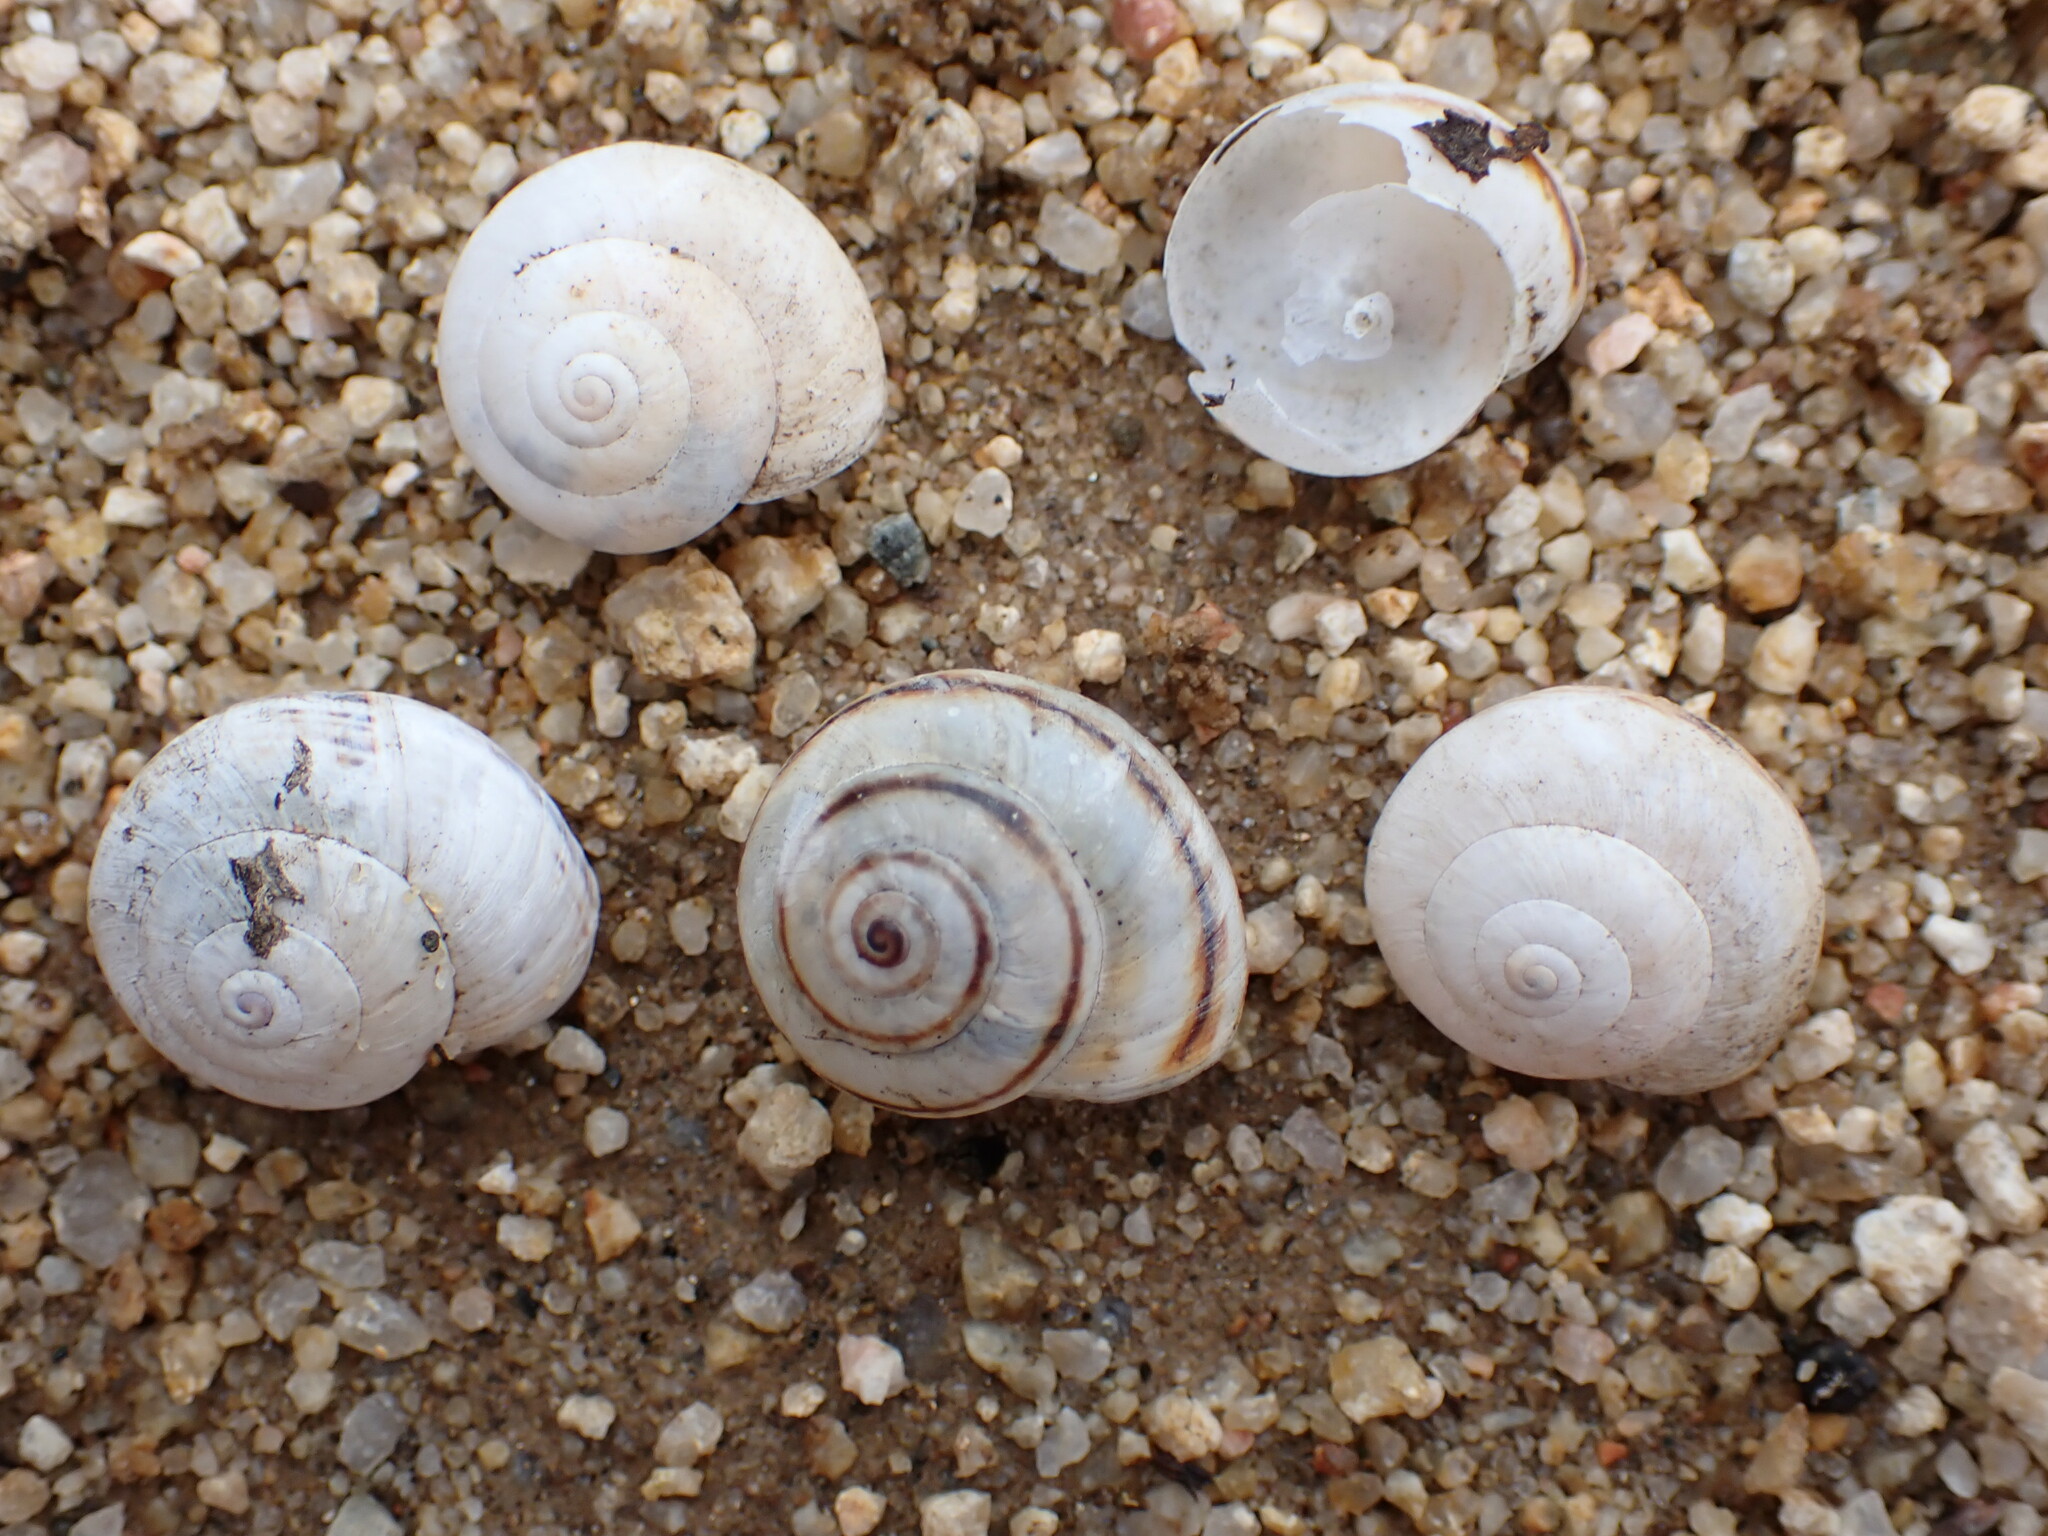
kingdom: Animalia
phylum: Mollusca
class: Gastropoda
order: Stylommatophora
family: Helicidae
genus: Theba
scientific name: Theba pisana
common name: White snail
